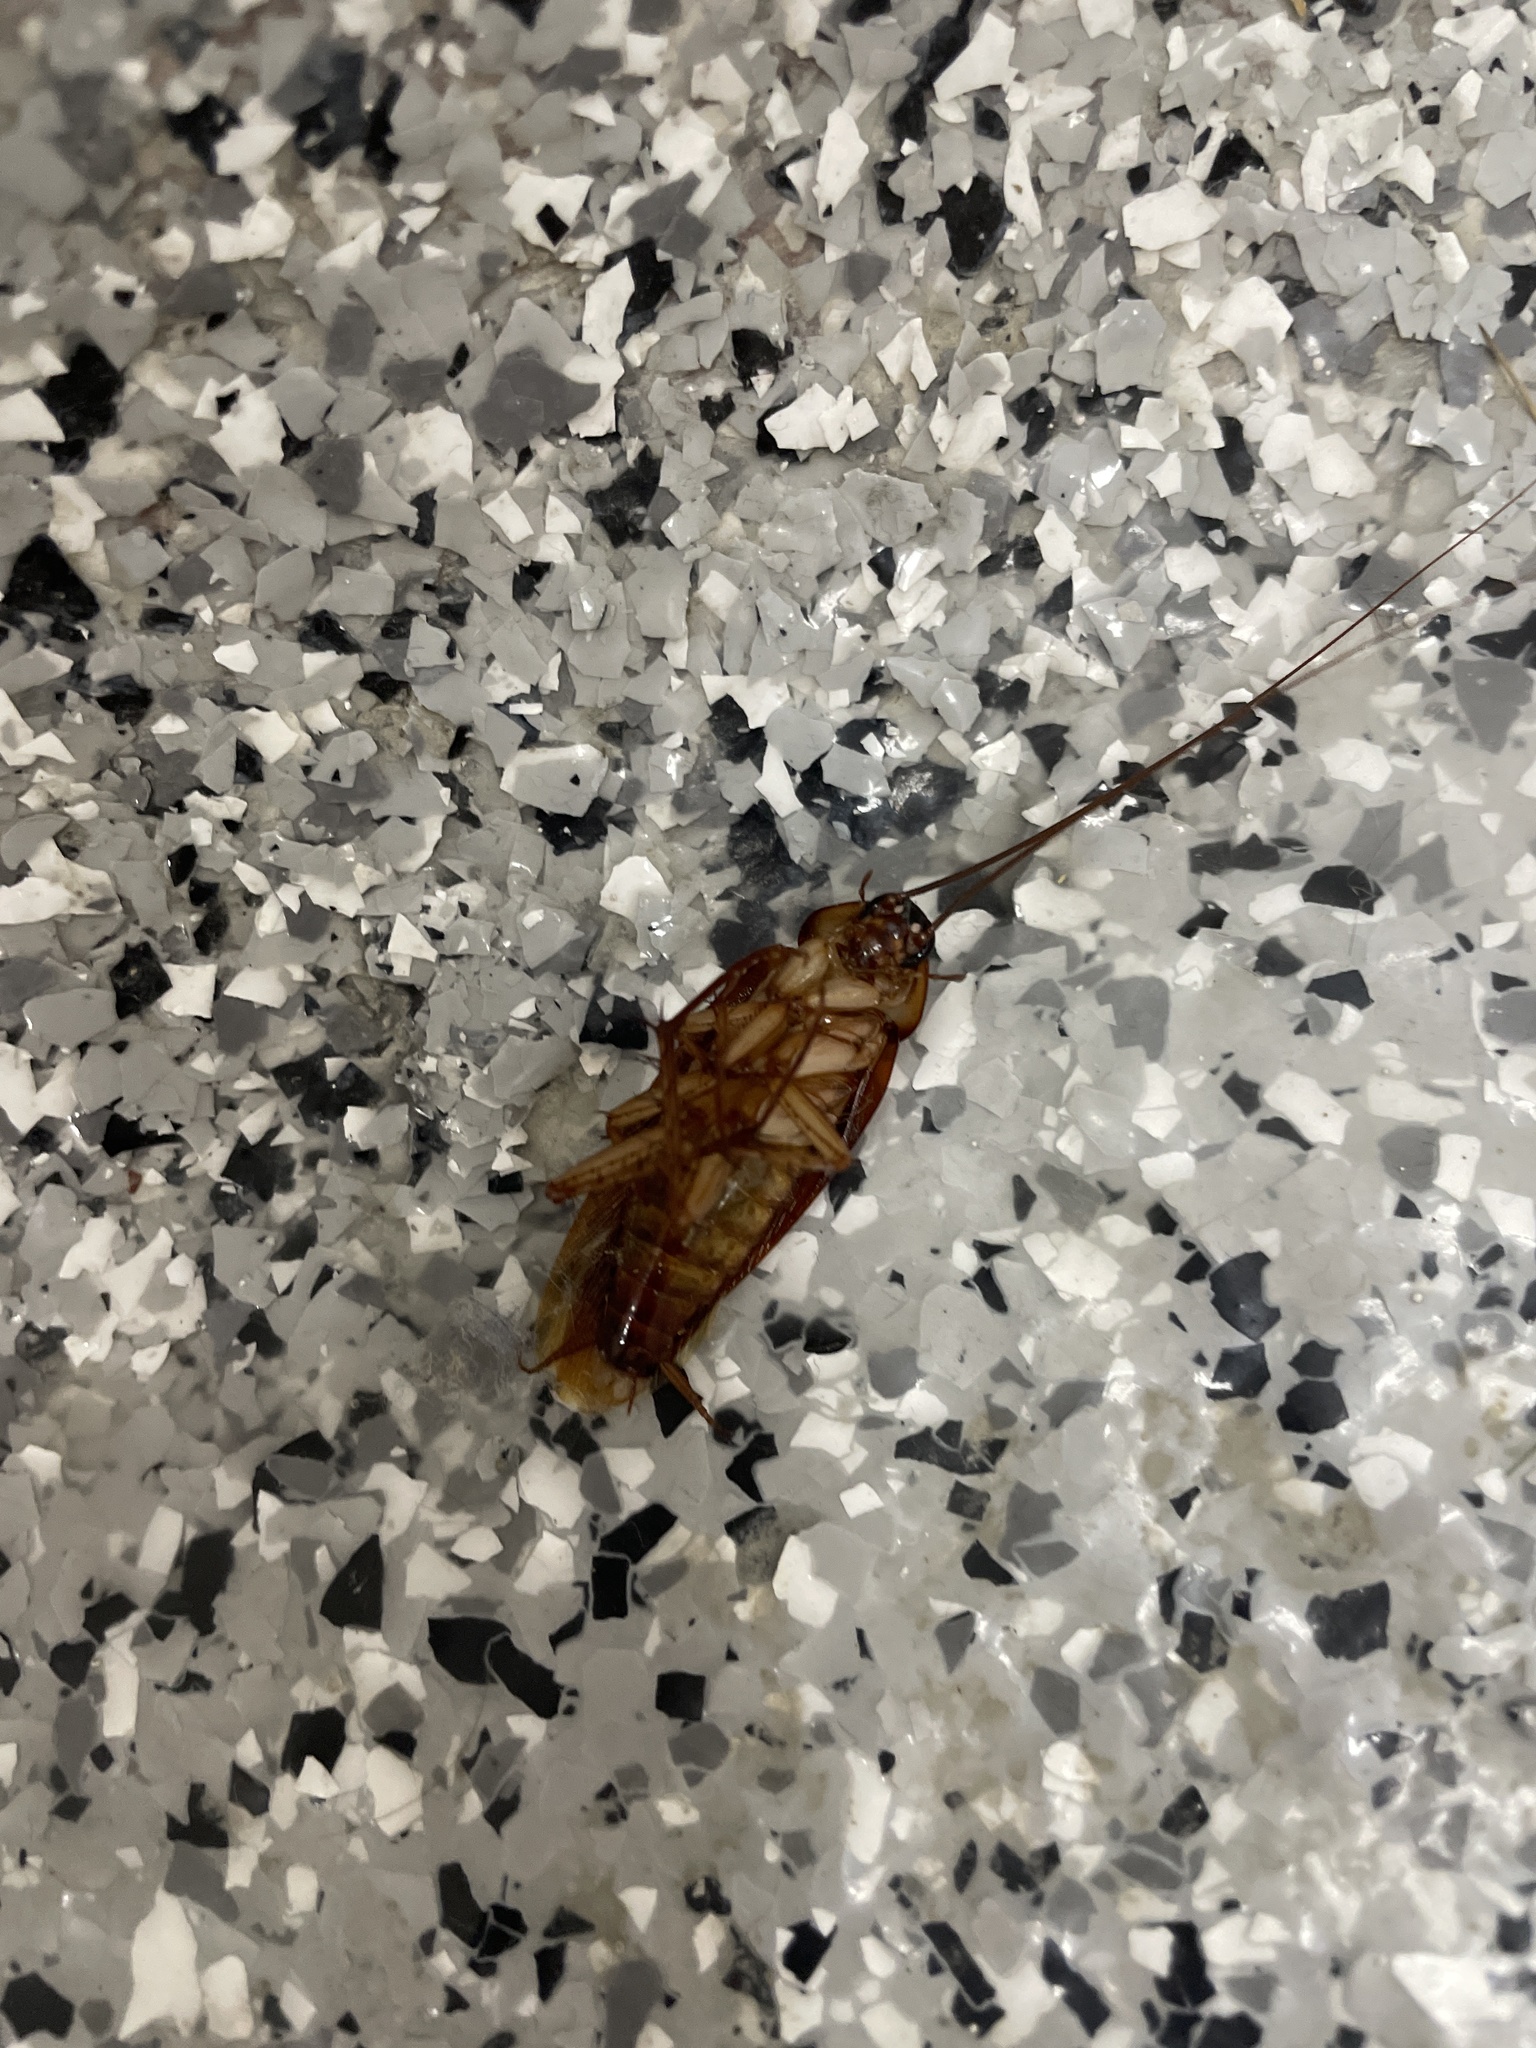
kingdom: Animalia
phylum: Arthropoda
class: Insecta
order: Blattodea
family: Blattidae
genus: Periplaneta
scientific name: Periplaneta americana
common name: American cockroach
